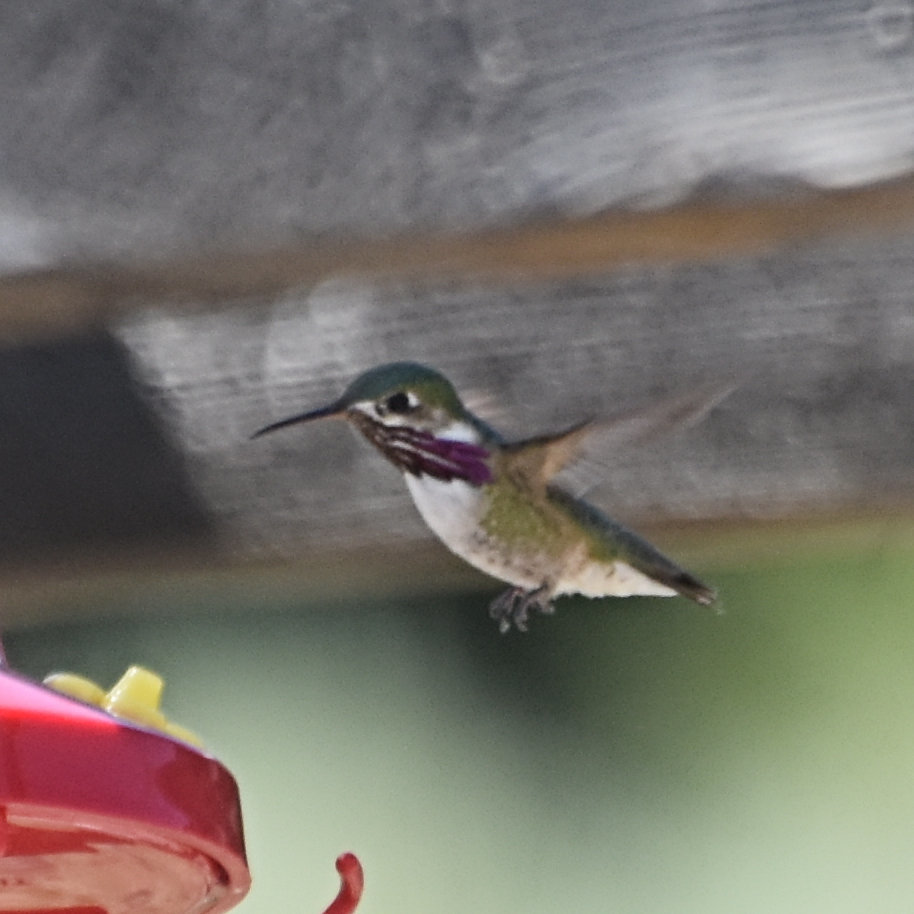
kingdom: Animalia
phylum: Chordata
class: Aves
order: Apodiformes
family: Trochilidae
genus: Selasphorus
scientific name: Selasphorus calliope
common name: Calliope hummingbird
